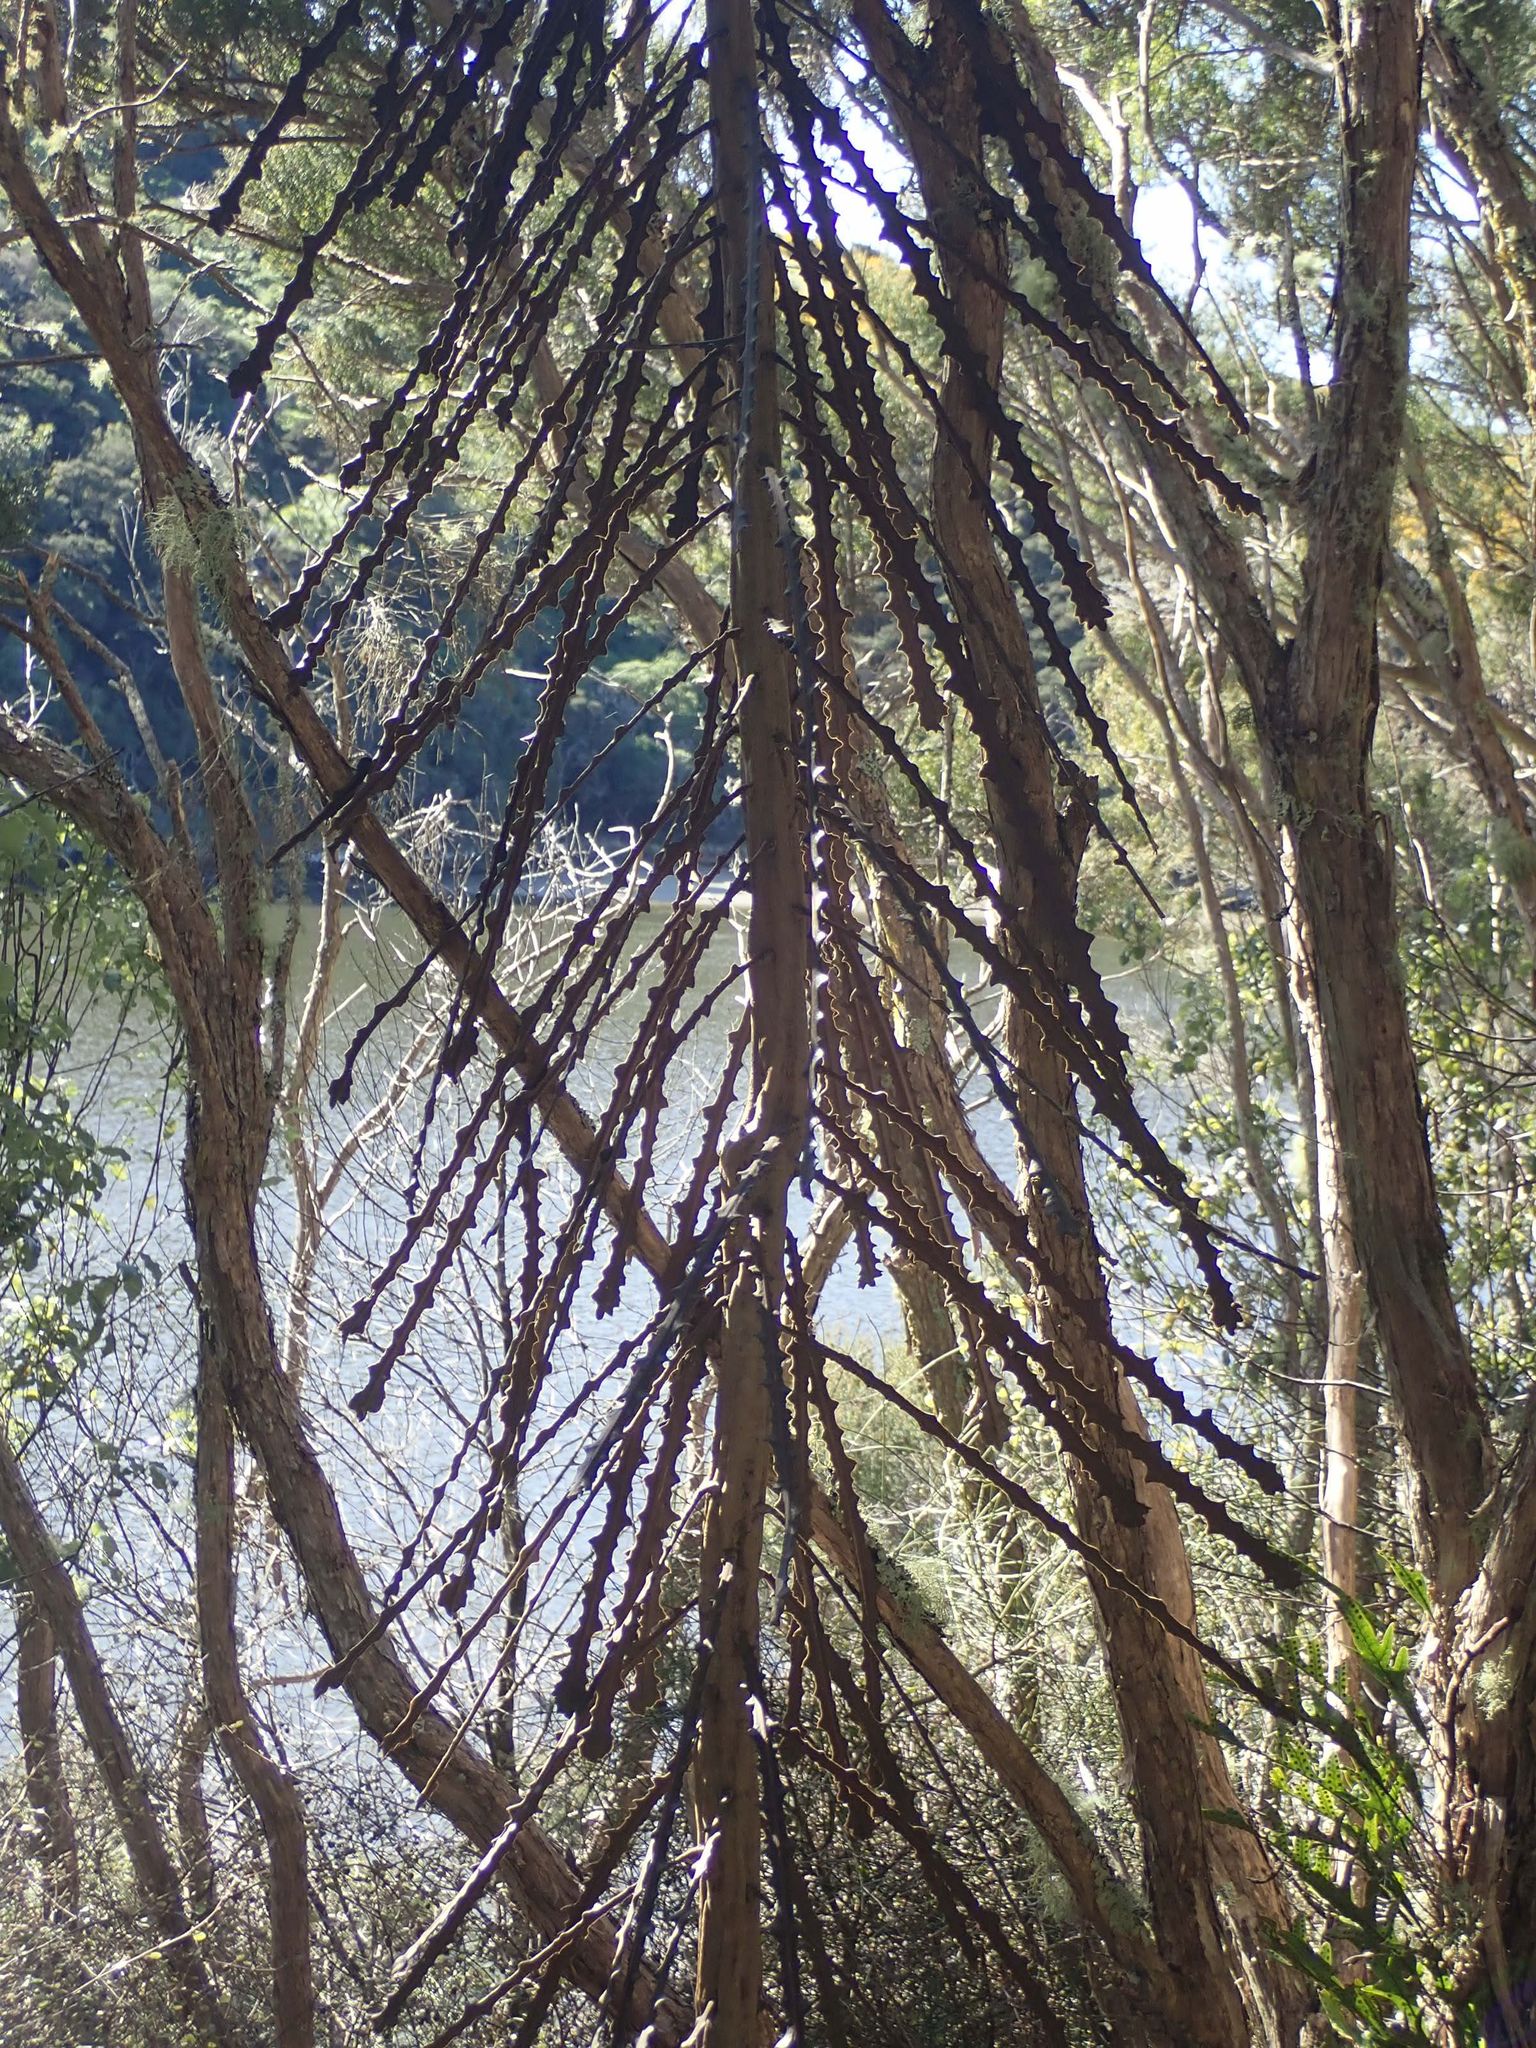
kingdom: Plantae
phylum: Tracheophyta
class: Magnoliopsida
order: Apiales
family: Araliaceae
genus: Pseudopanax
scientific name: Pseudopanax ferox
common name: Fierce lancewood
